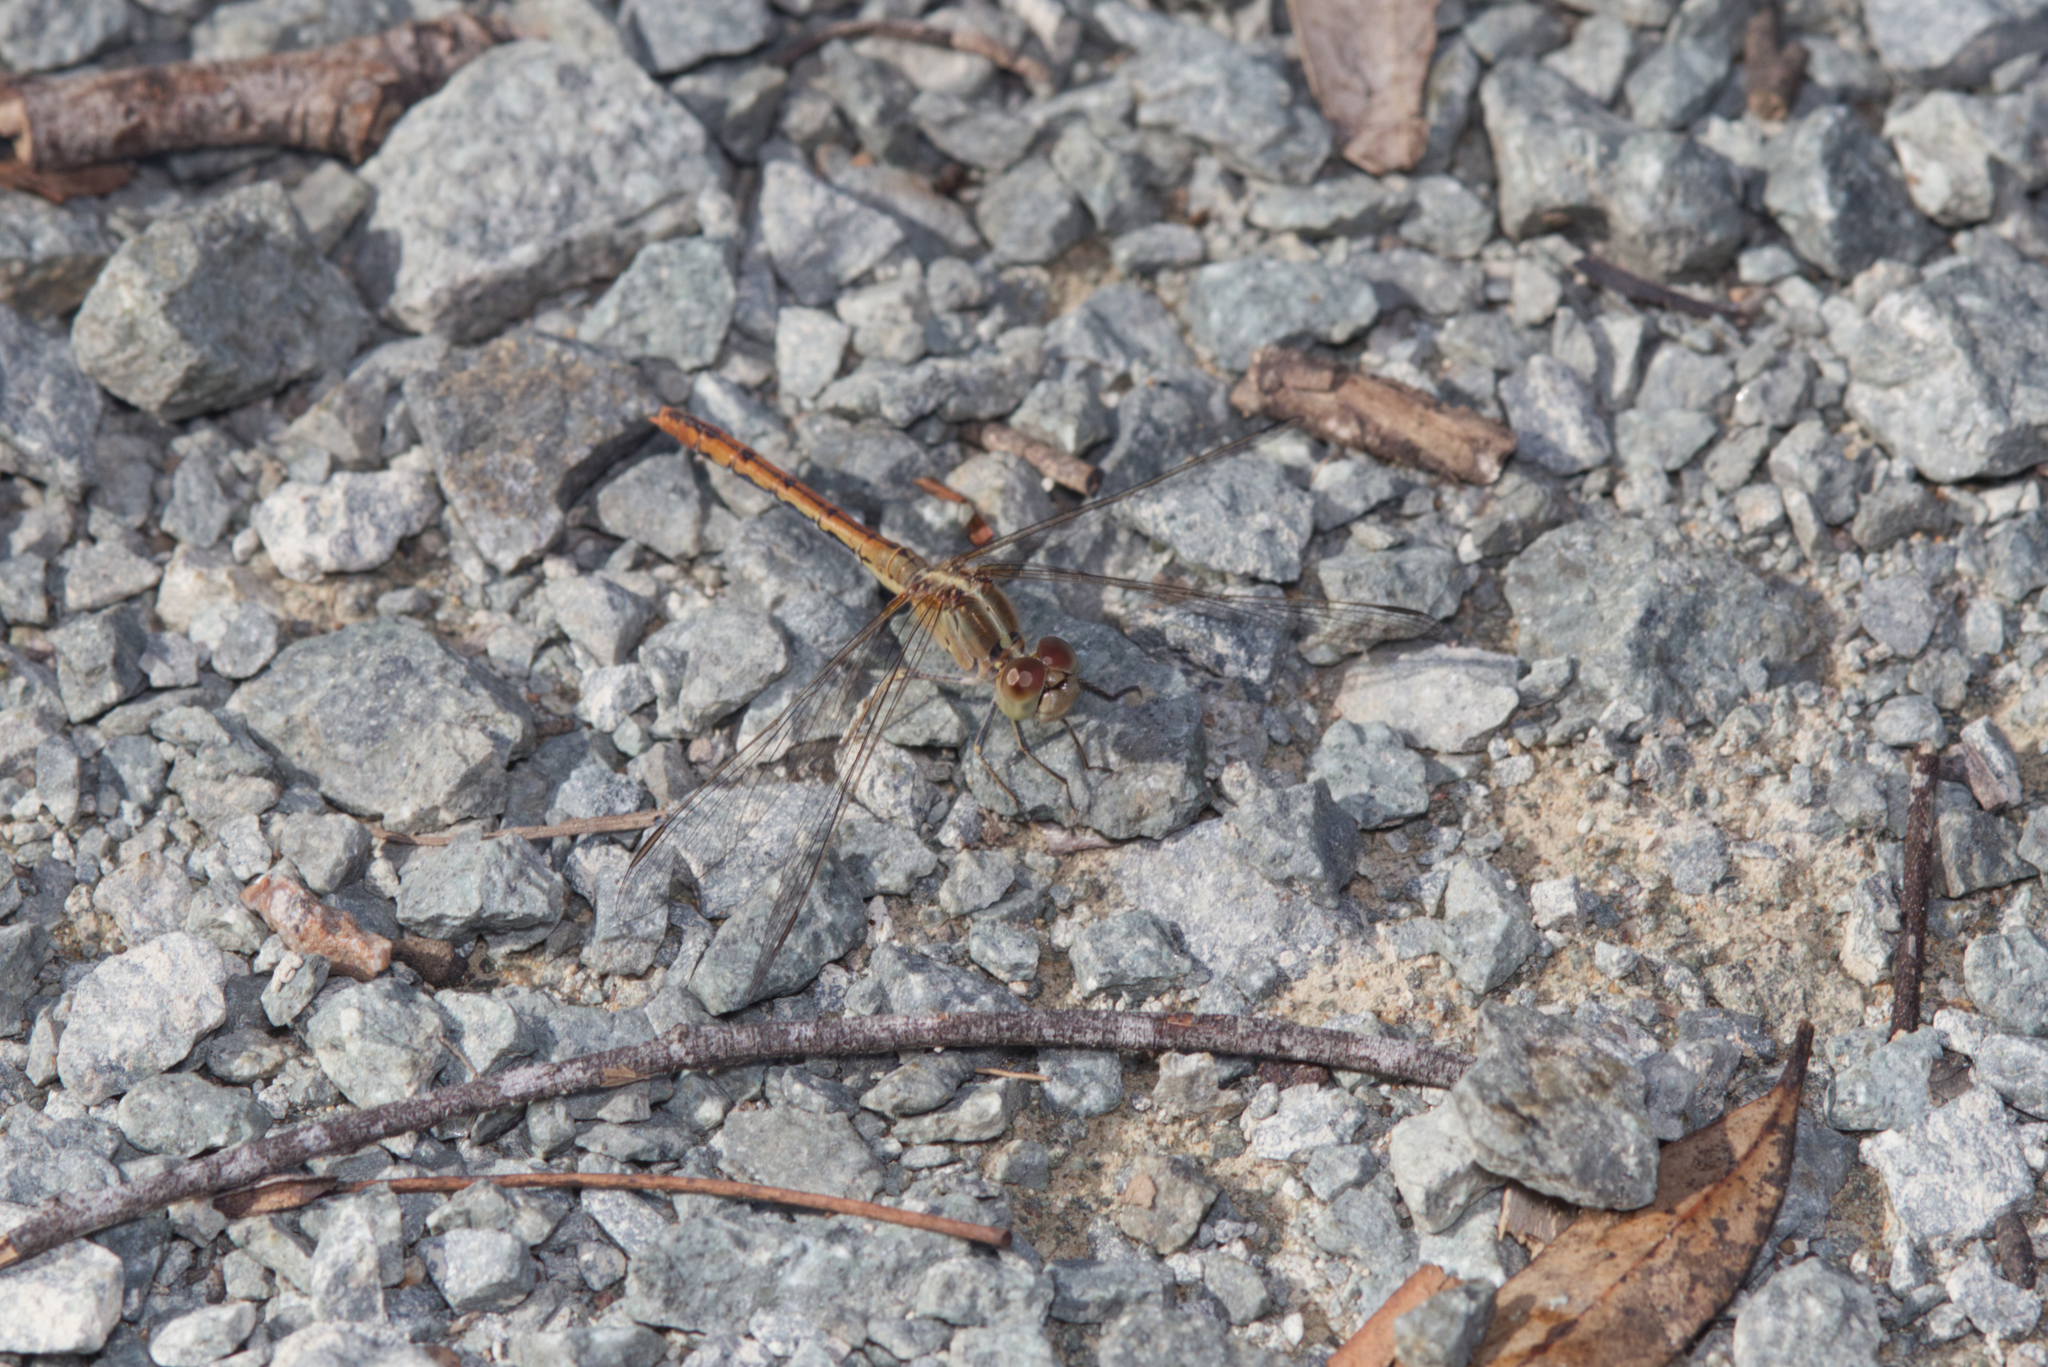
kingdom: Animalia
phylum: Arthropoda
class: Insecta
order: Odonata
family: Libellulidae
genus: Diplacodes
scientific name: Diplacodes bipunctata
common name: Red percher dragonfly
